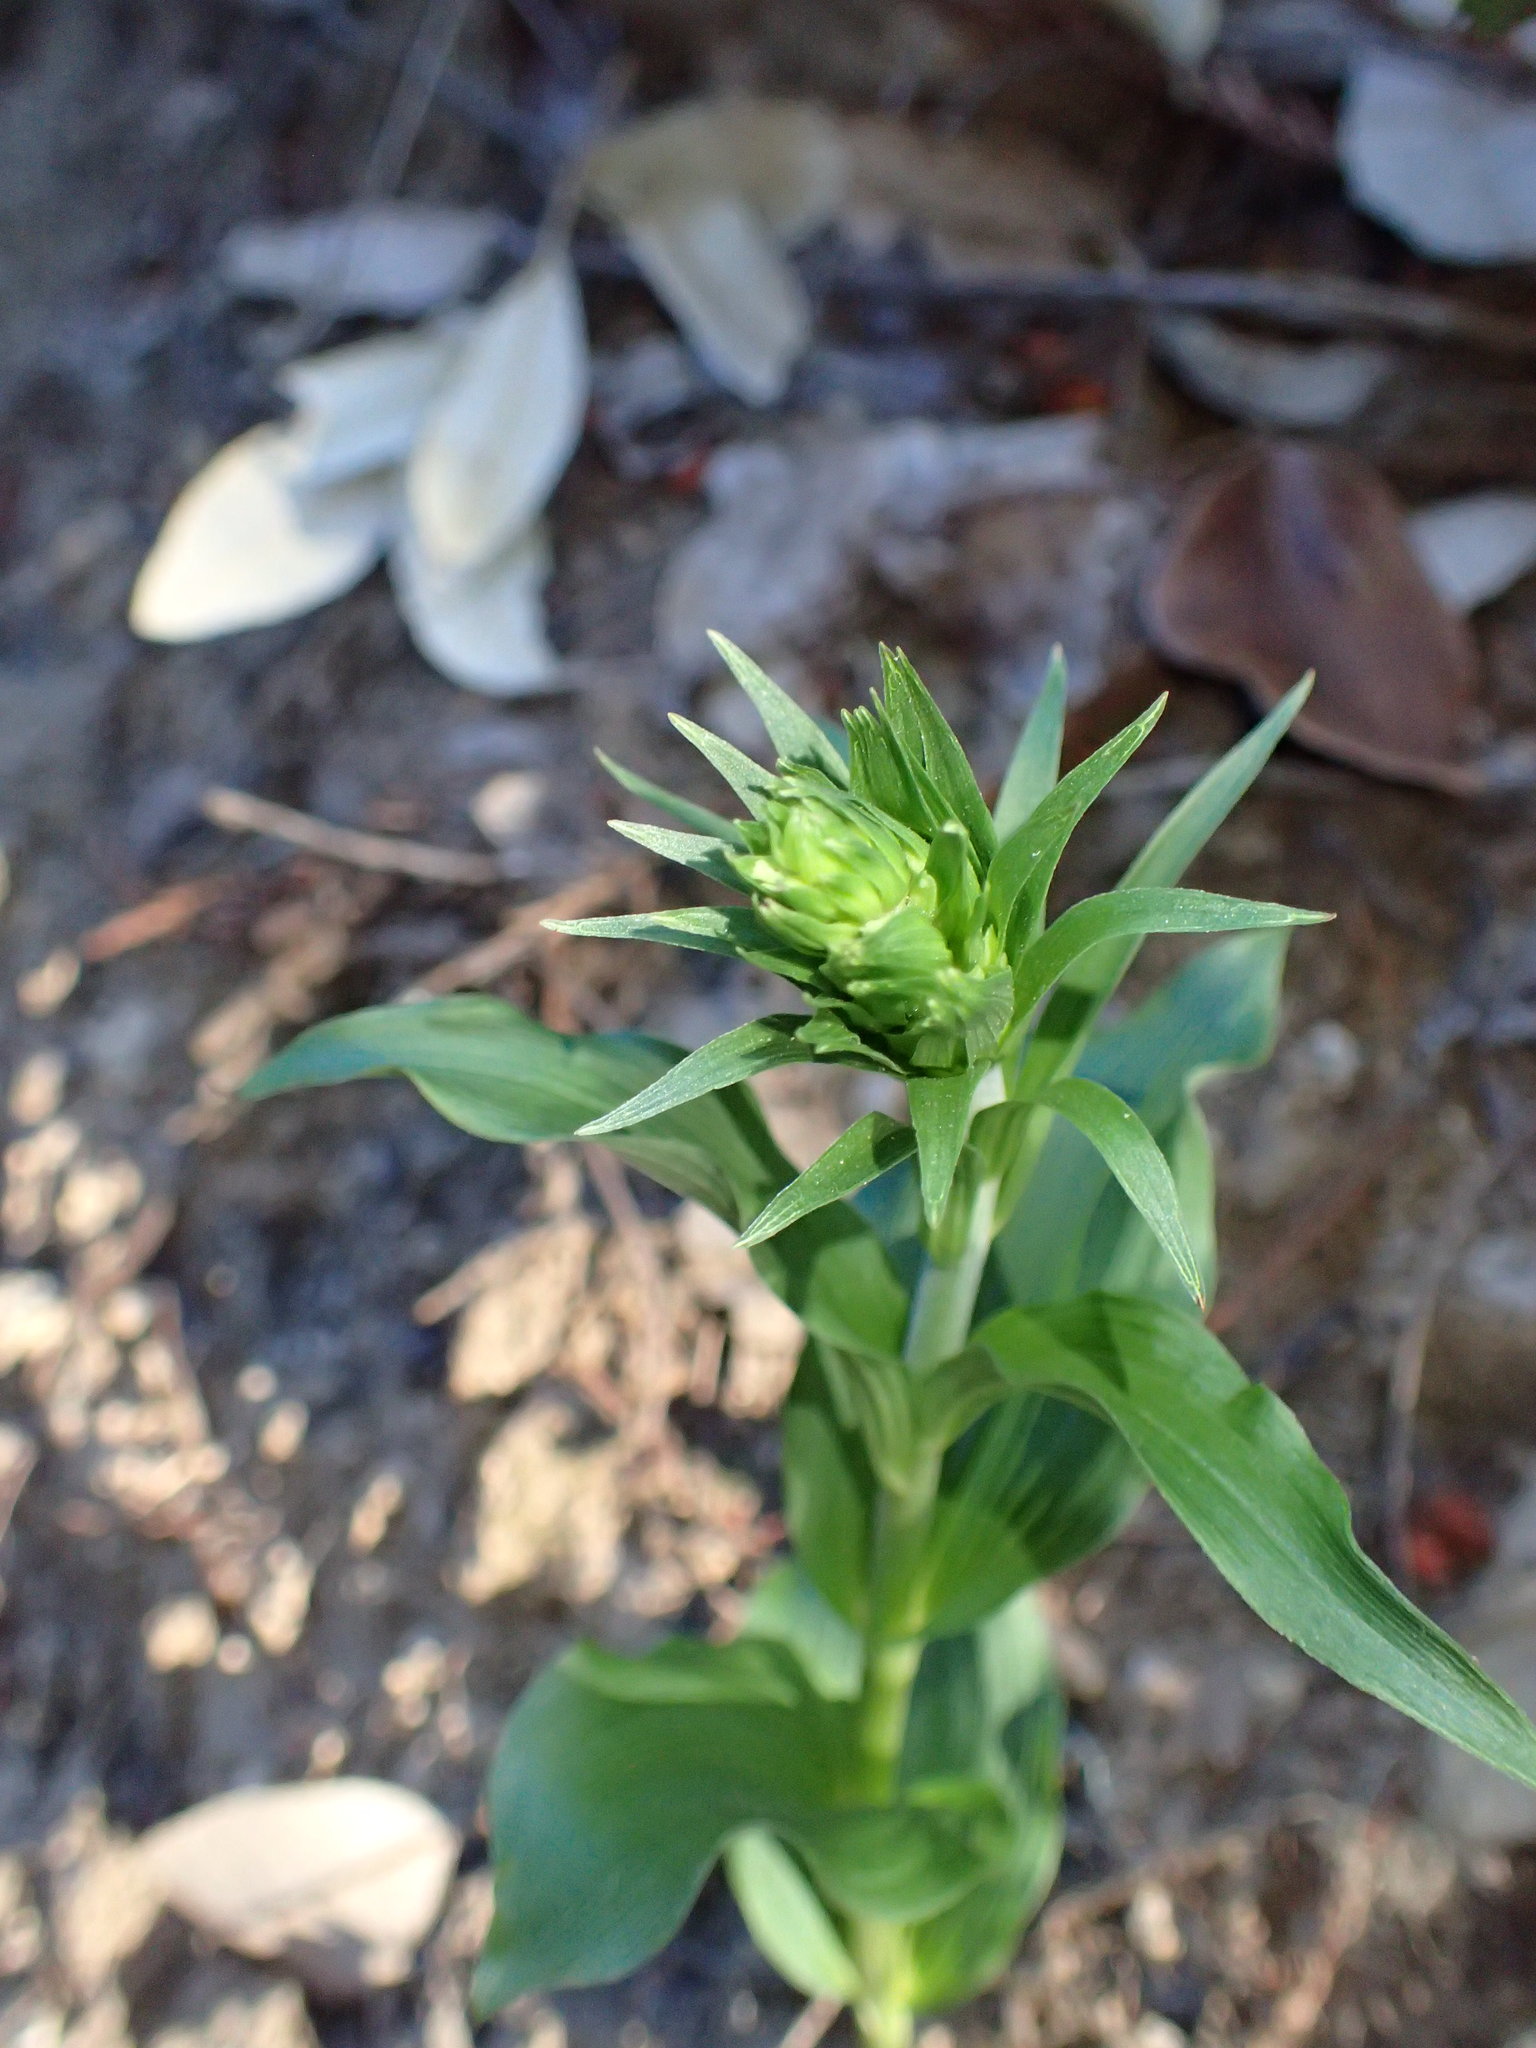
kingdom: Plantae
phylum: Tracheophyta
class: Liliopsida
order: Asparagales
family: Orchidaceae
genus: Epipactis
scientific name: Epipactis helleborine
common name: Broad-leaved helleborine
